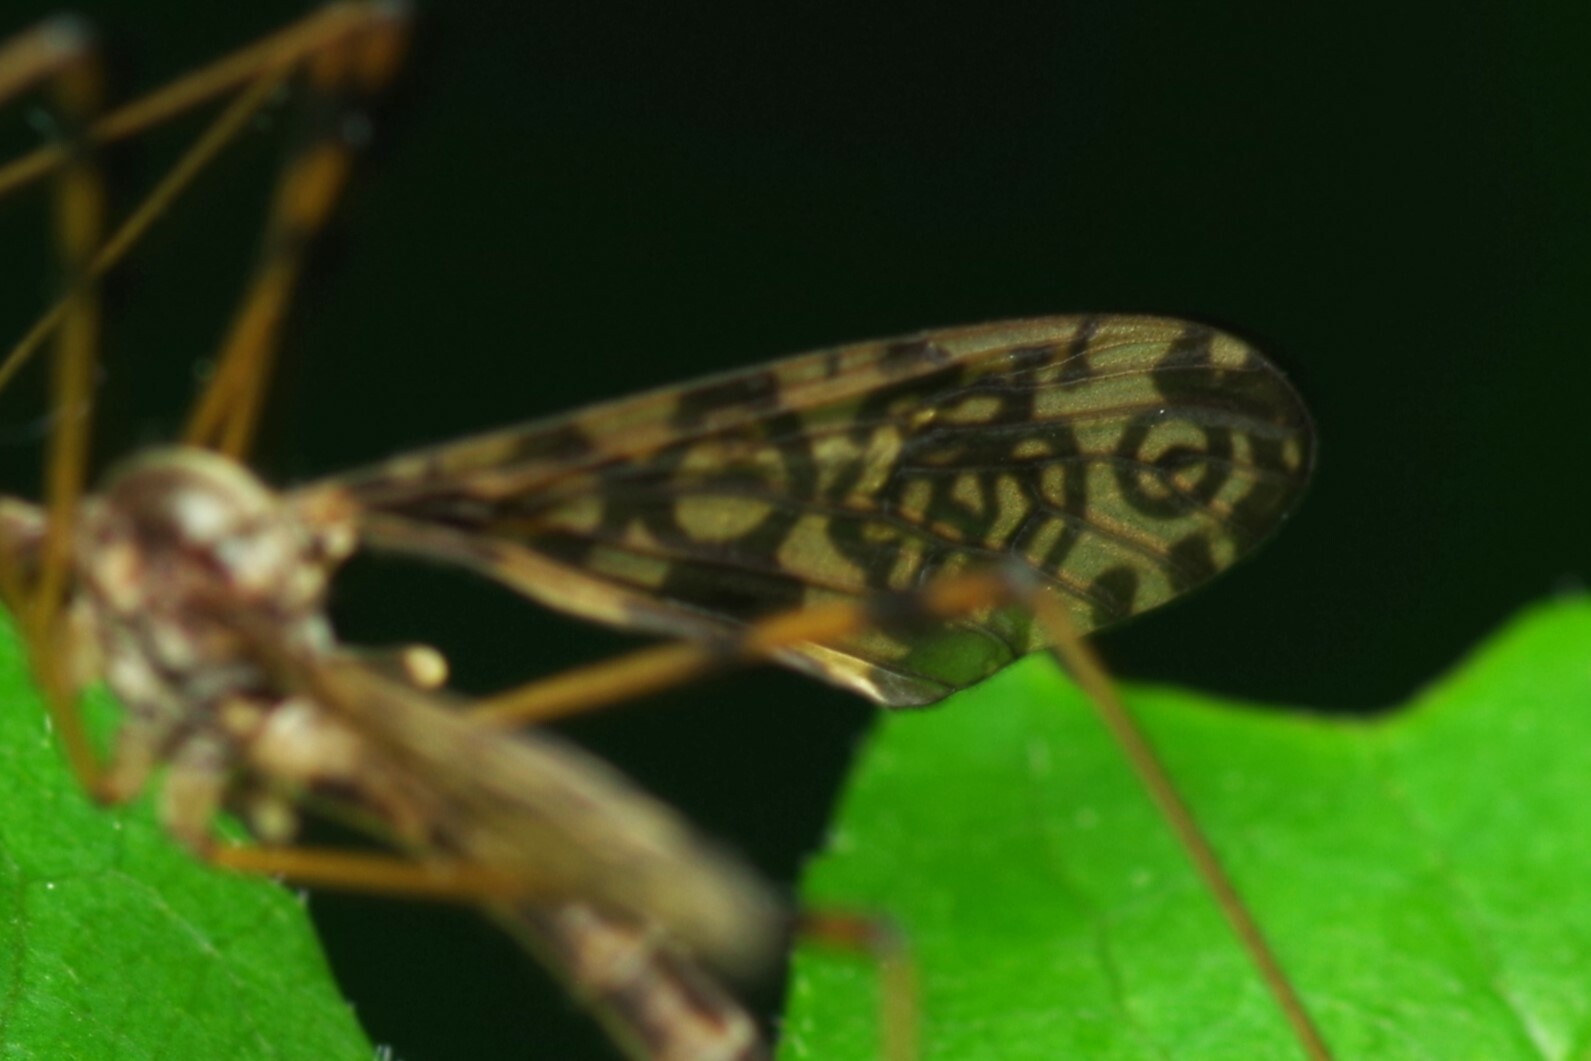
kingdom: Animalia
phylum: Arthropoda
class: Insecta
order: Diptera
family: Limoniidae
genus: Epiphragma
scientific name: Epiphragma ocellare
